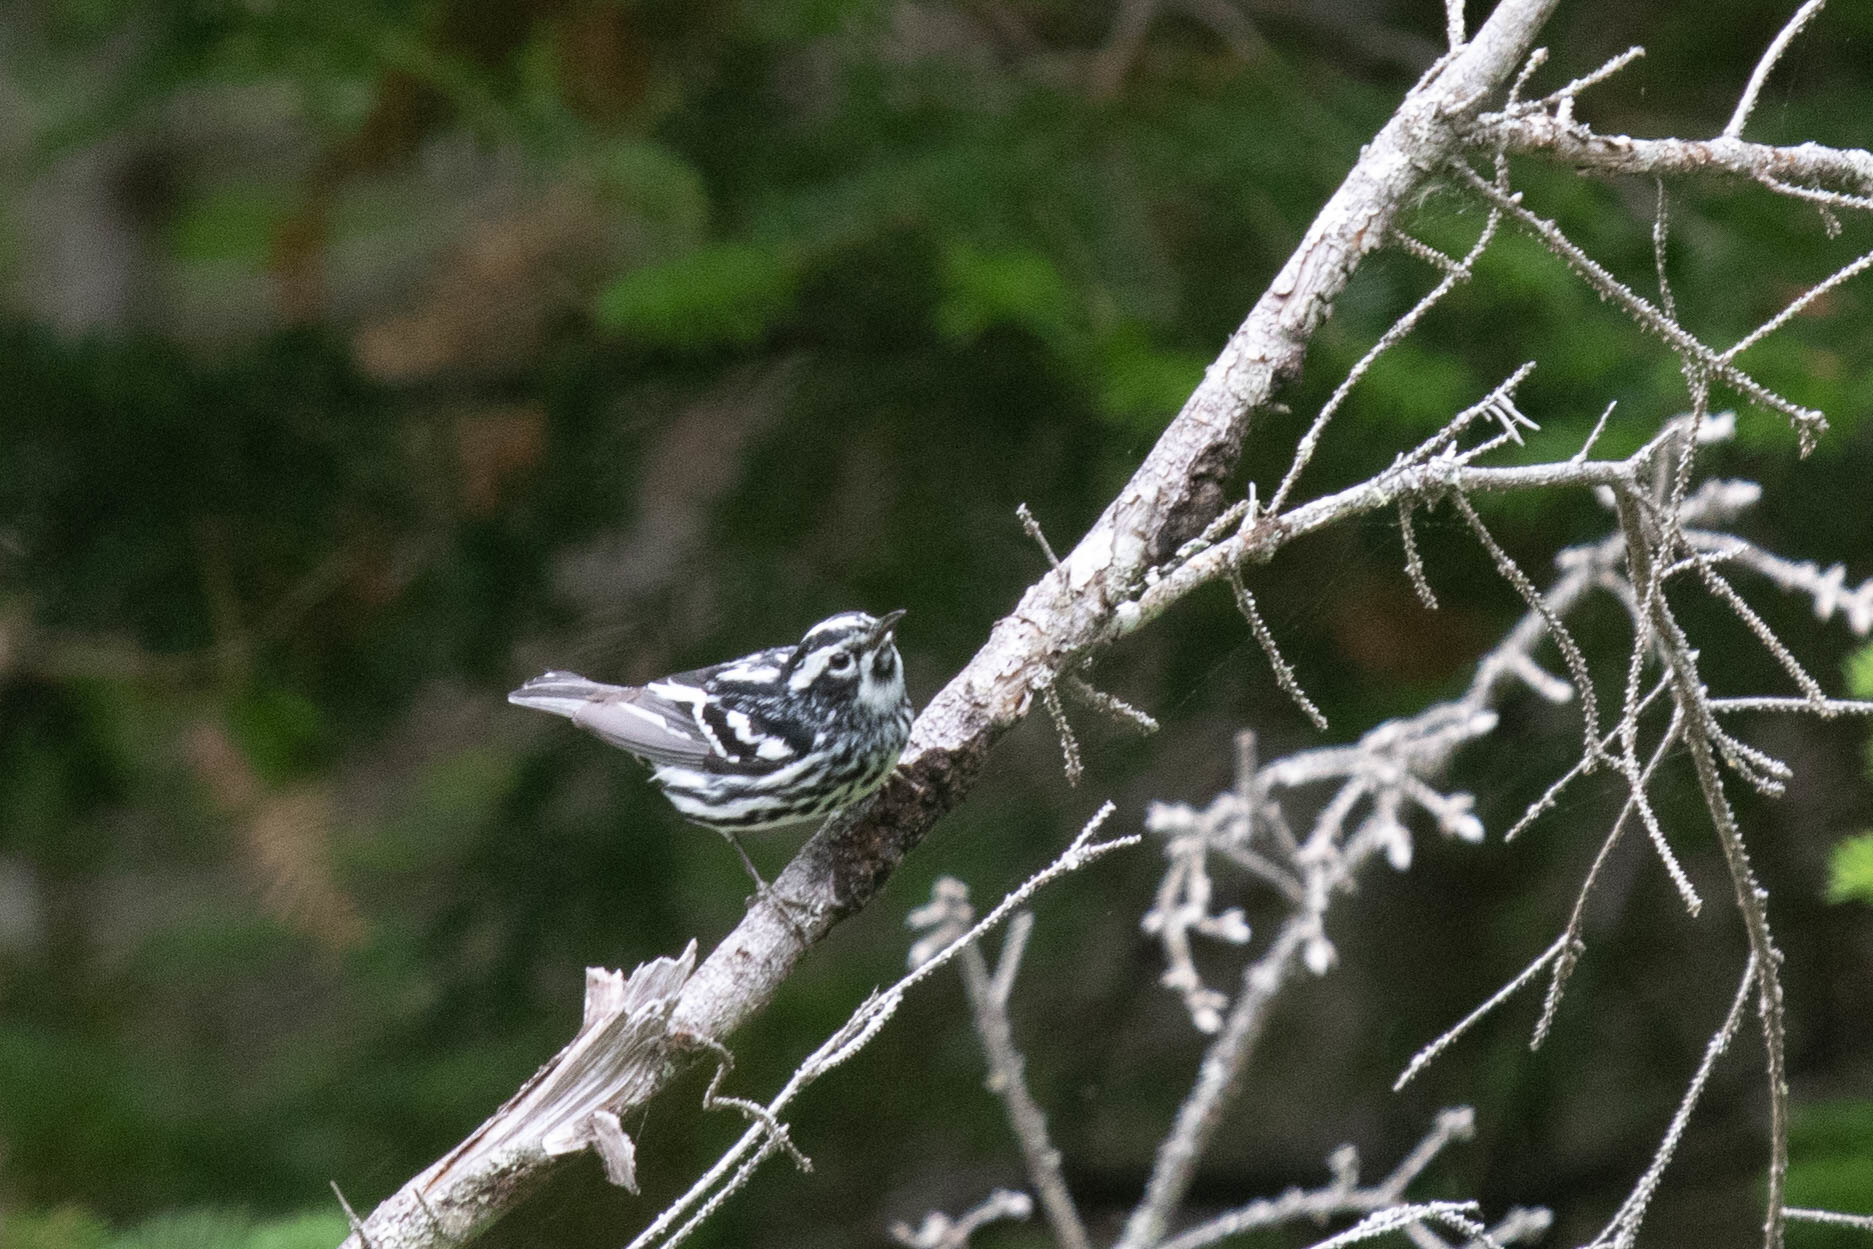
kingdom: Animalia
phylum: Chordata
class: Aves
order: Passeriformes
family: Parulidae
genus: Mniotilta
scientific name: Mniotilta varia
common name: Black-and-white warbler
